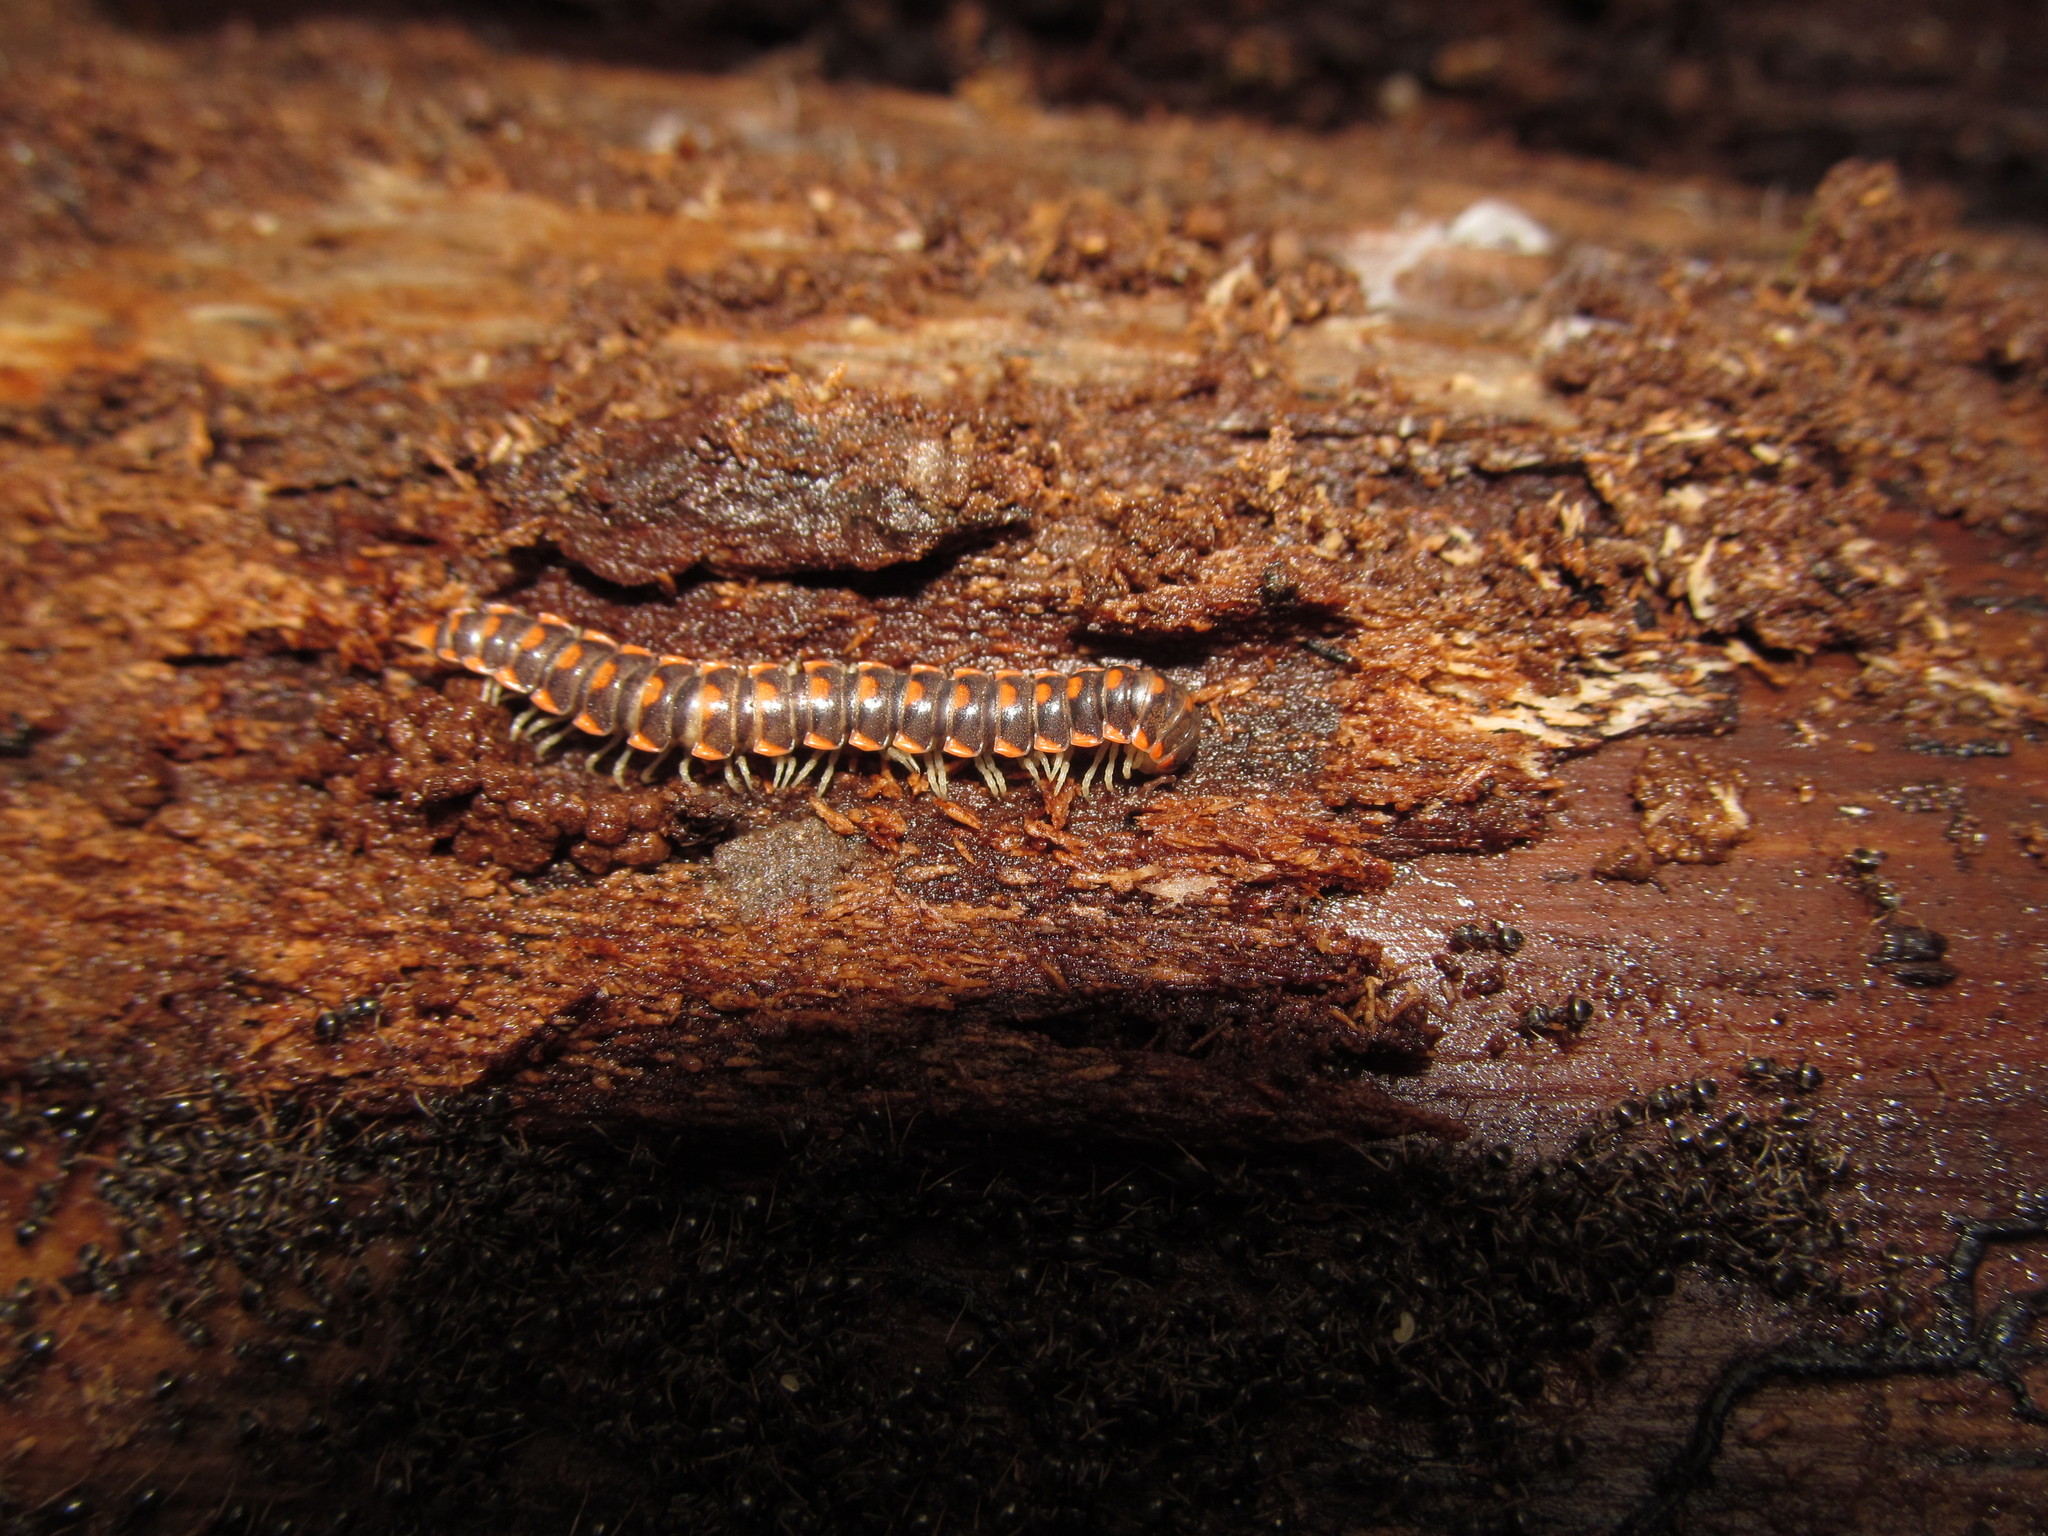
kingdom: Animalia
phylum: Arthropoda
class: Diplopoda
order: Polydesmida
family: Xystodesmidae
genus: Euryurus
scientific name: Euryurus leachii
